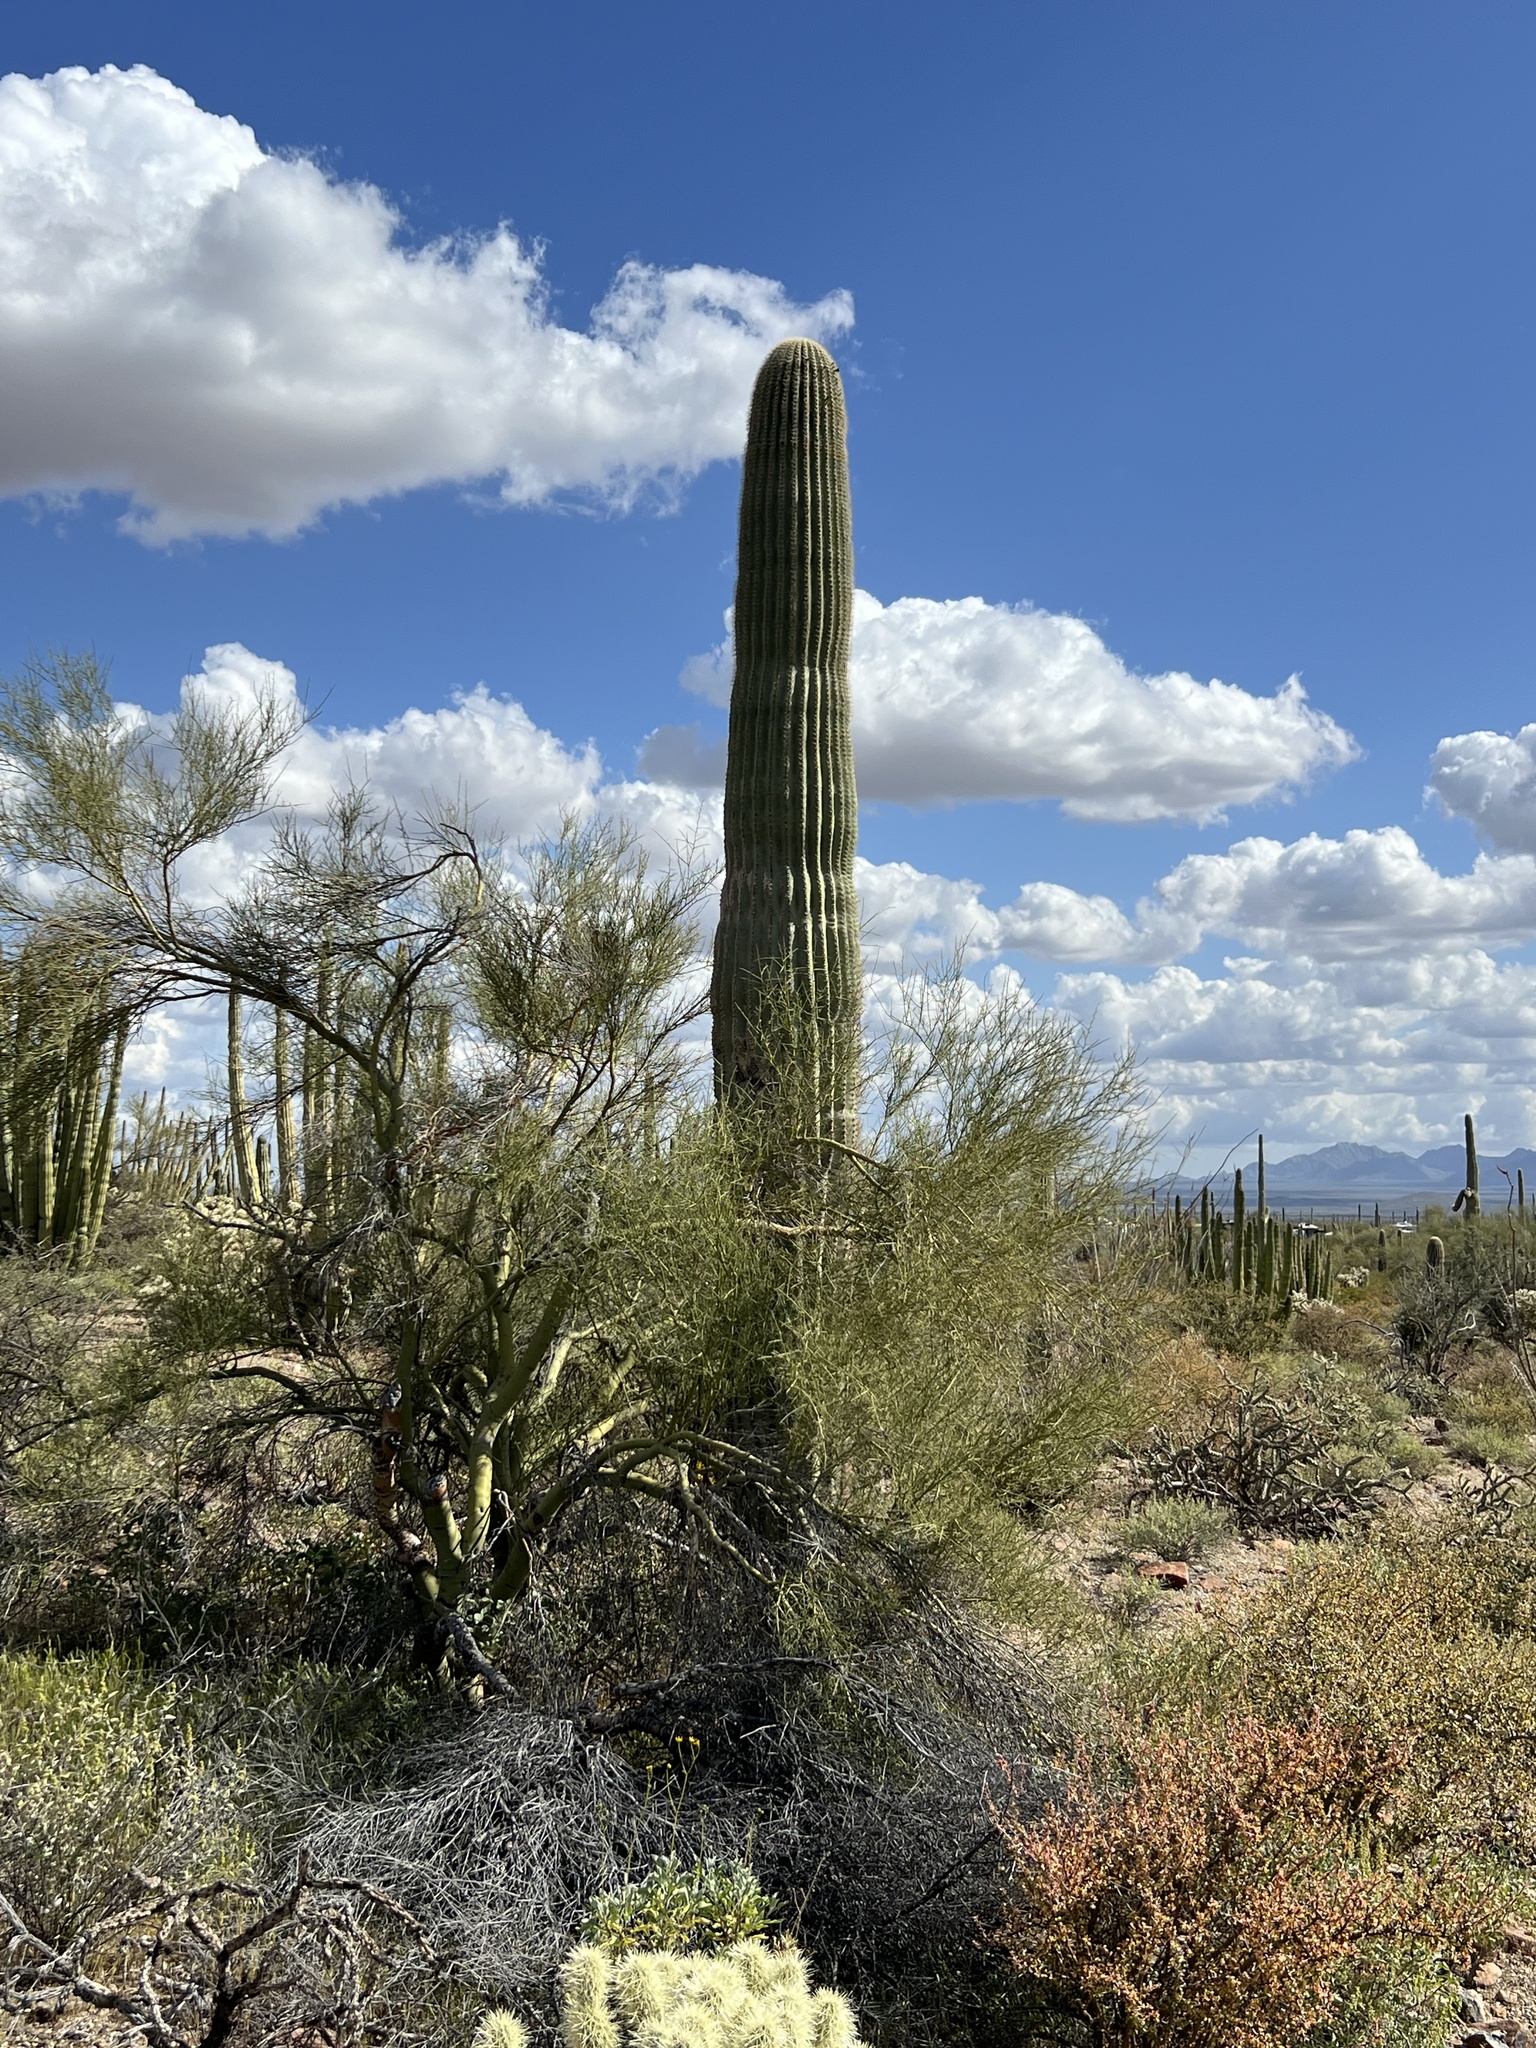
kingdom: Plantae
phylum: Tracheophyta
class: Magnoliopsida
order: Caryophyllales
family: Cactaceae
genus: Carnegiea
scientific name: Carnegiea gigantea
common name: Saguaro
